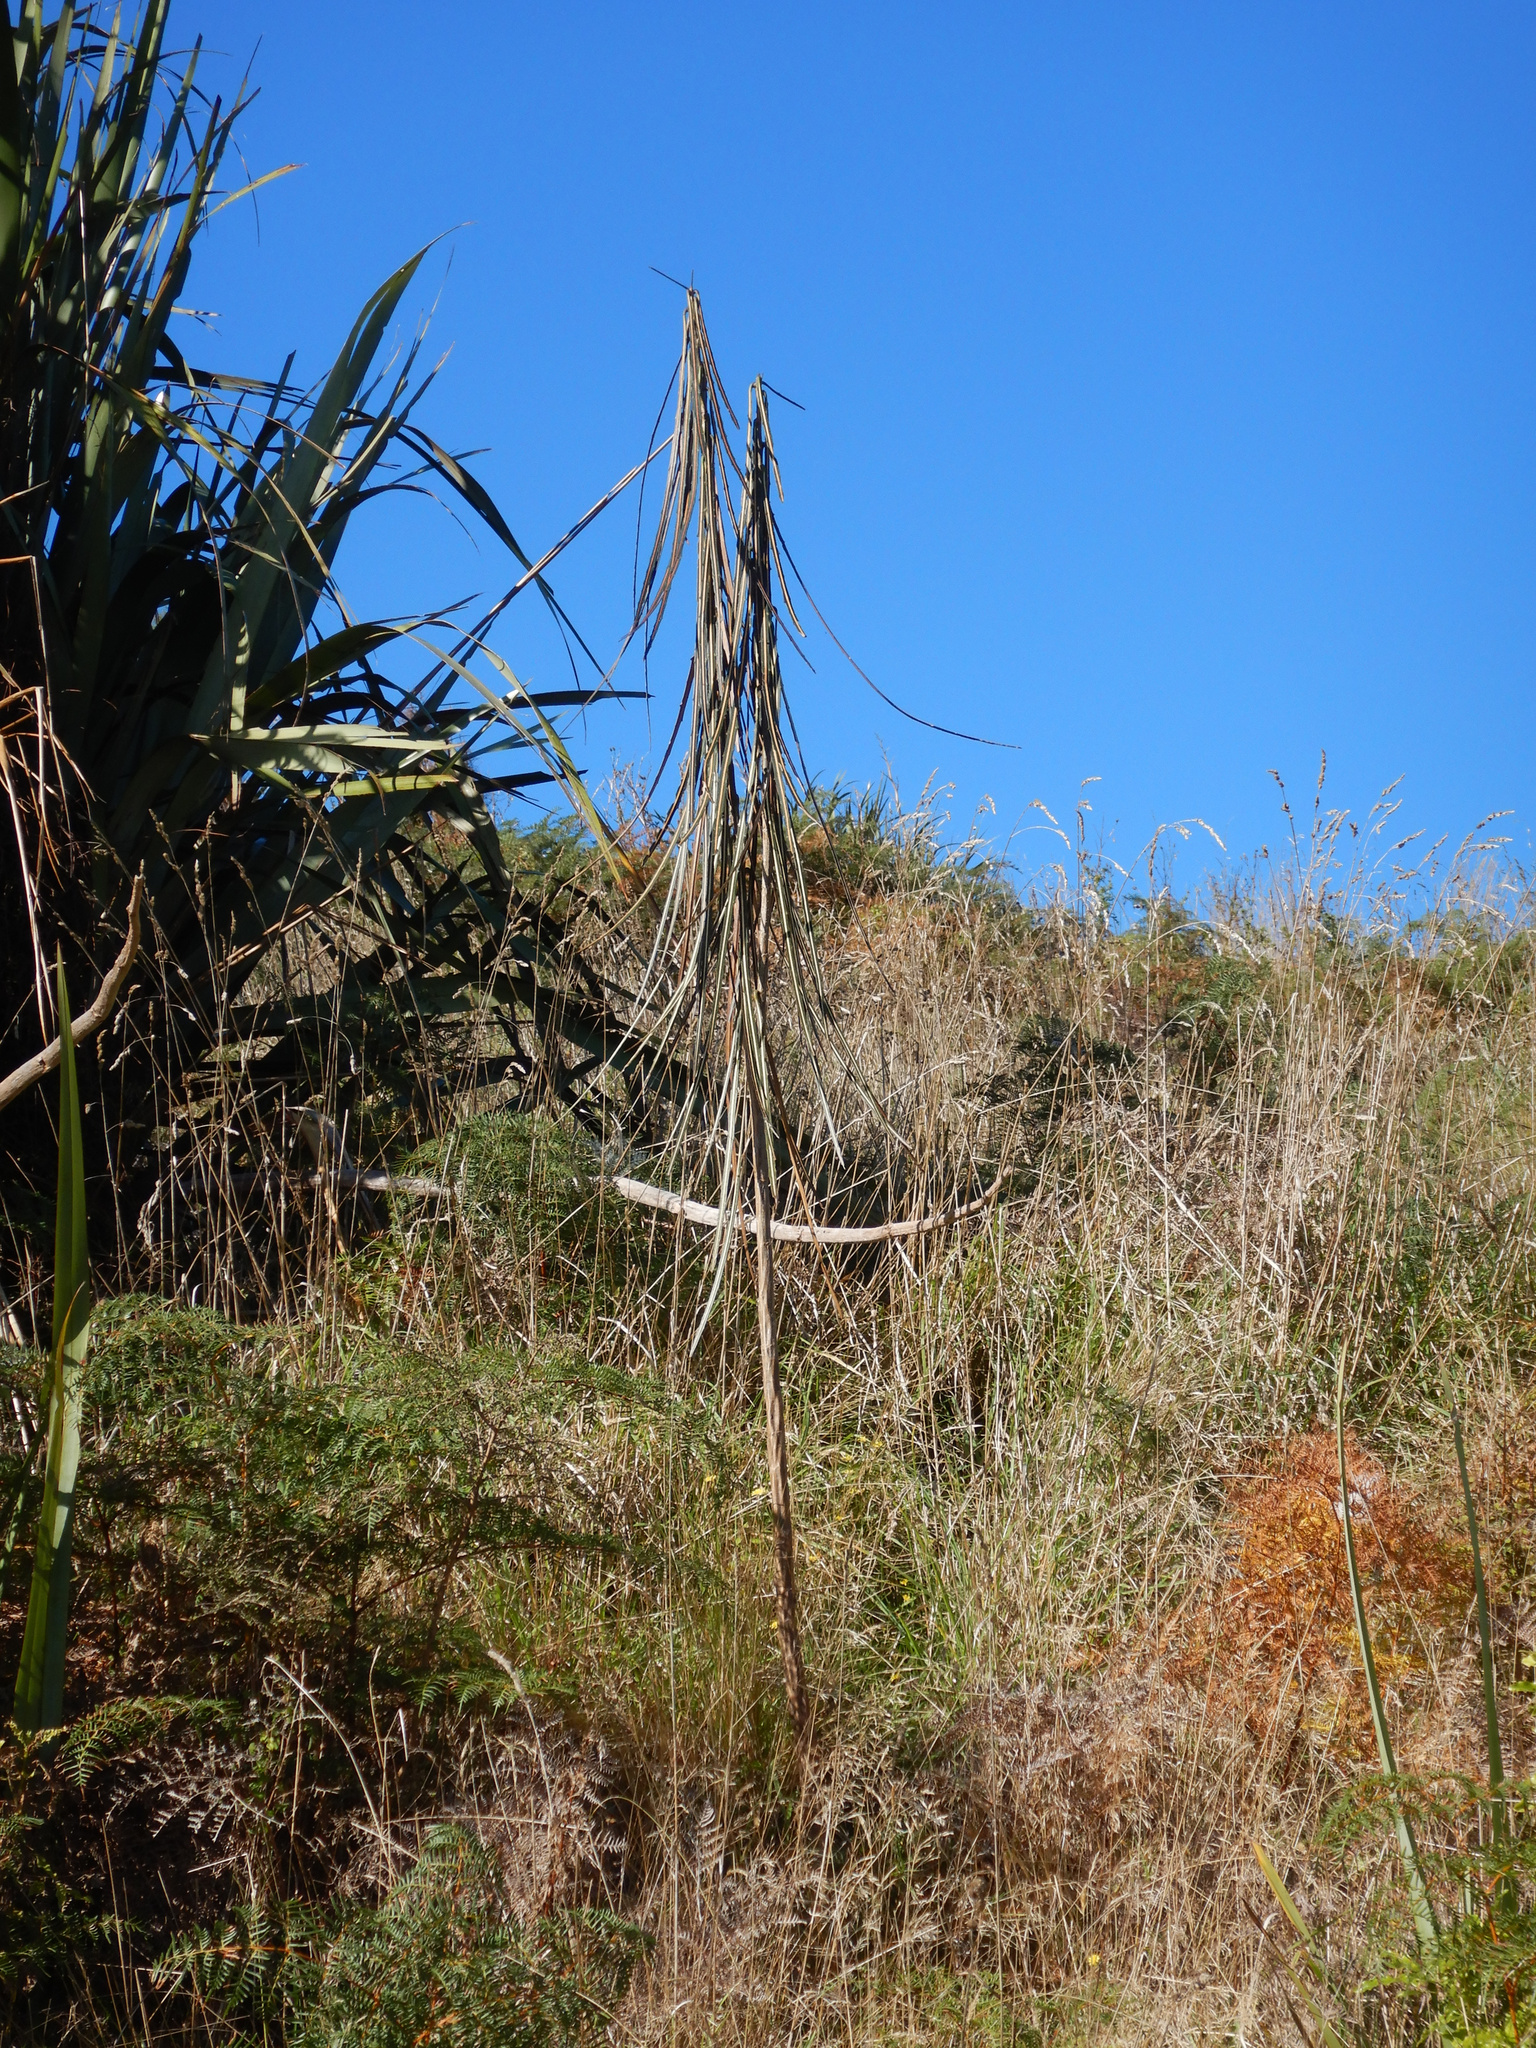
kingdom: Plantae
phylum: Tracheophyta
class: Magnoliopsida
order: Apiales
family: Araliaceae
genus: Pseudopanax
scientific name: Pseudopanax crassifolius
